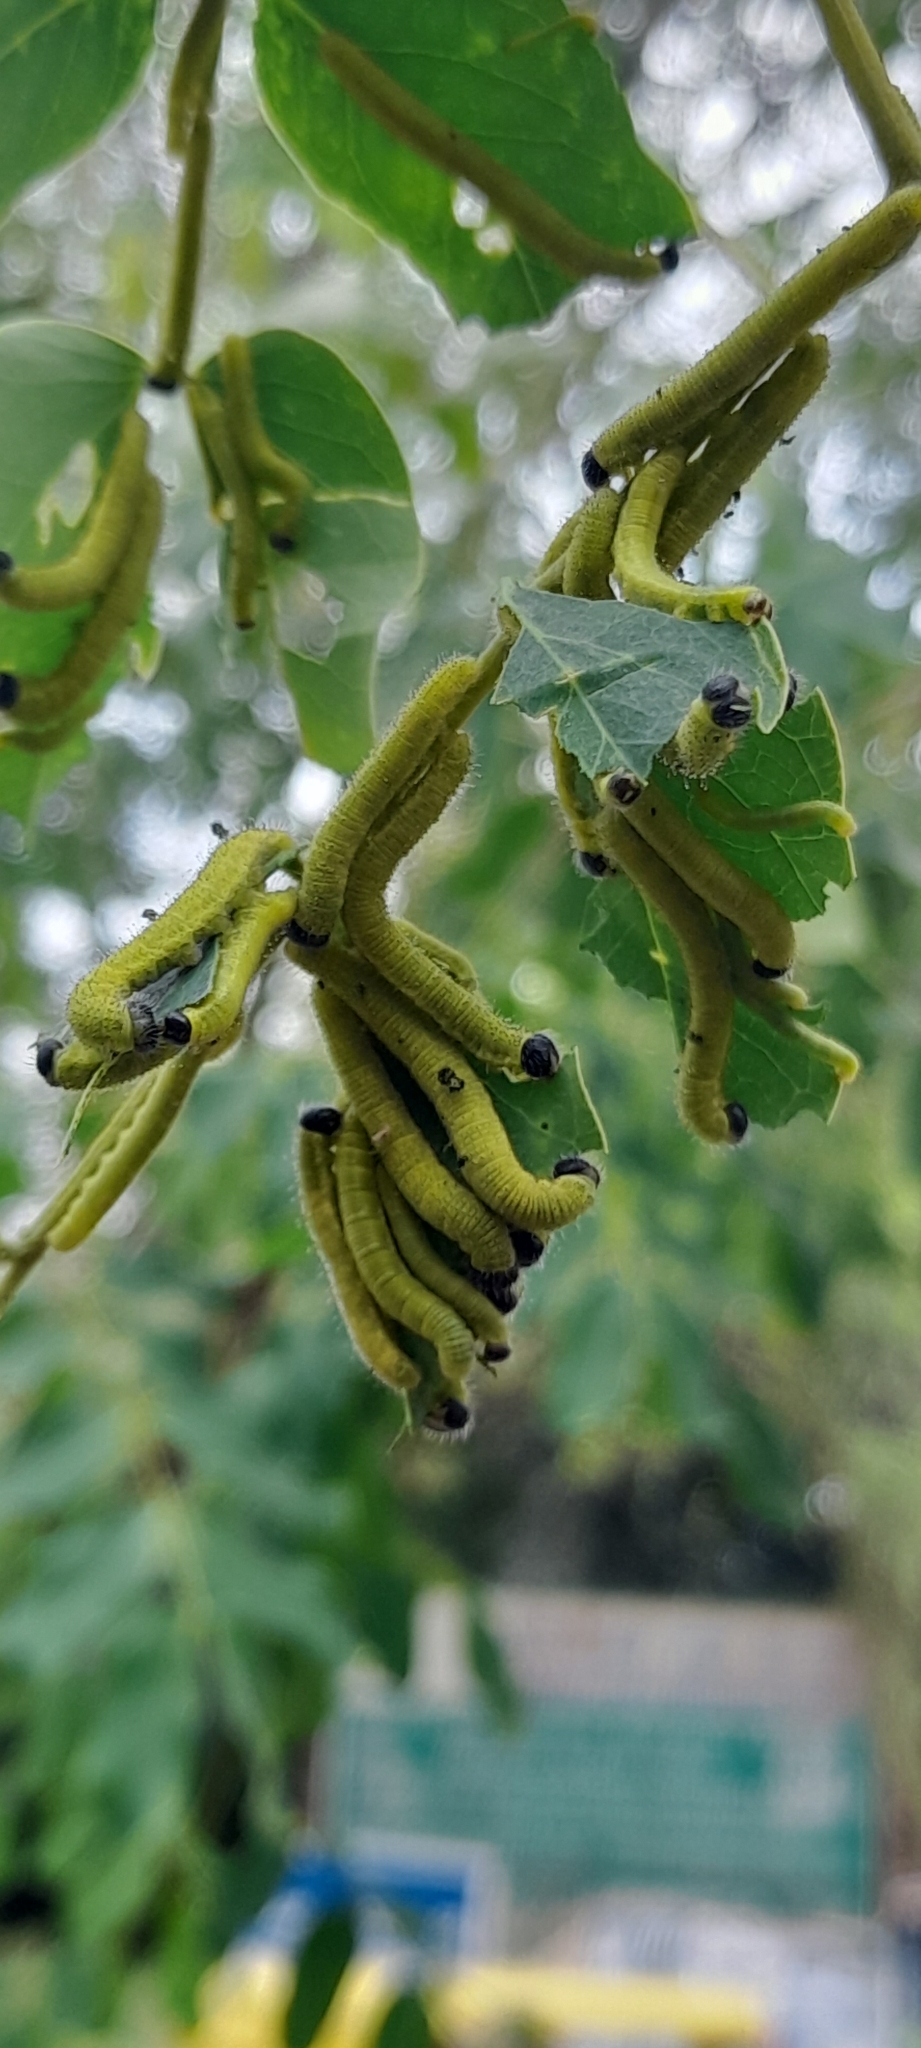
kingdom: Animalia
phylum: Arthropoda
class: Insecta
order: Lepidoptera
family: Pieridae
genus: Eurema
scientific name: Eurema blanda
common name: Three-spot grass yellow
